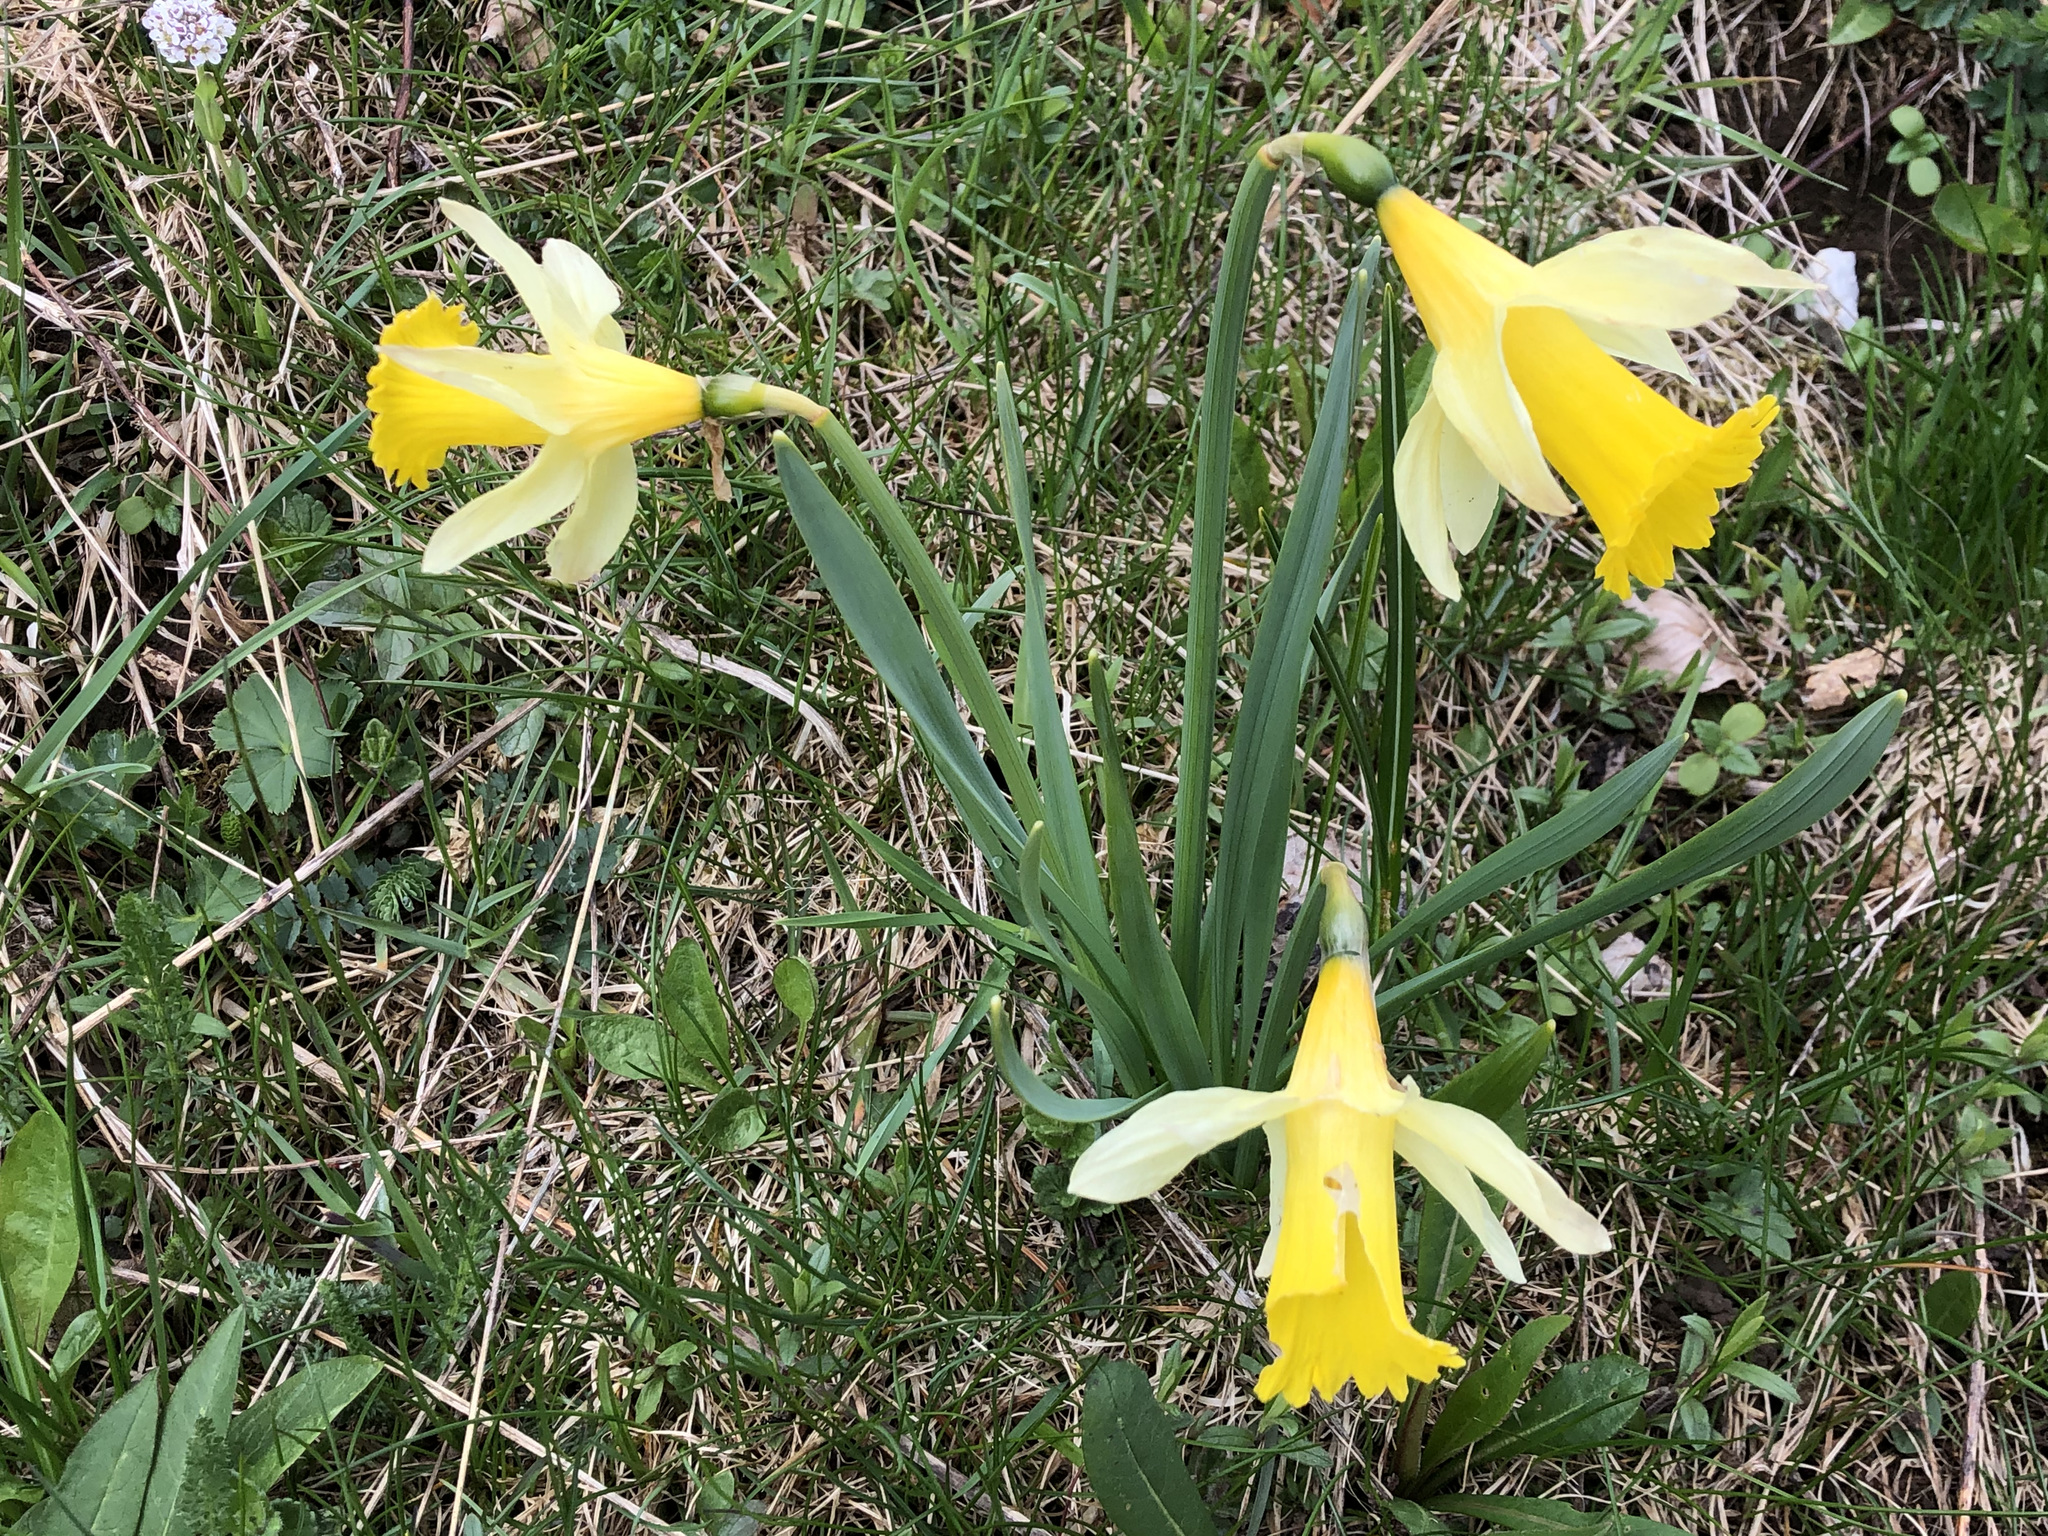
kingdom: Plantae
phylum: Tracheophyta
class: Liliopsida
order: Asparagales
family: Amaryllidaceae
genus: Narcissus
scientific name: Narcissus pseudonarcissus
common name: Daffodil
